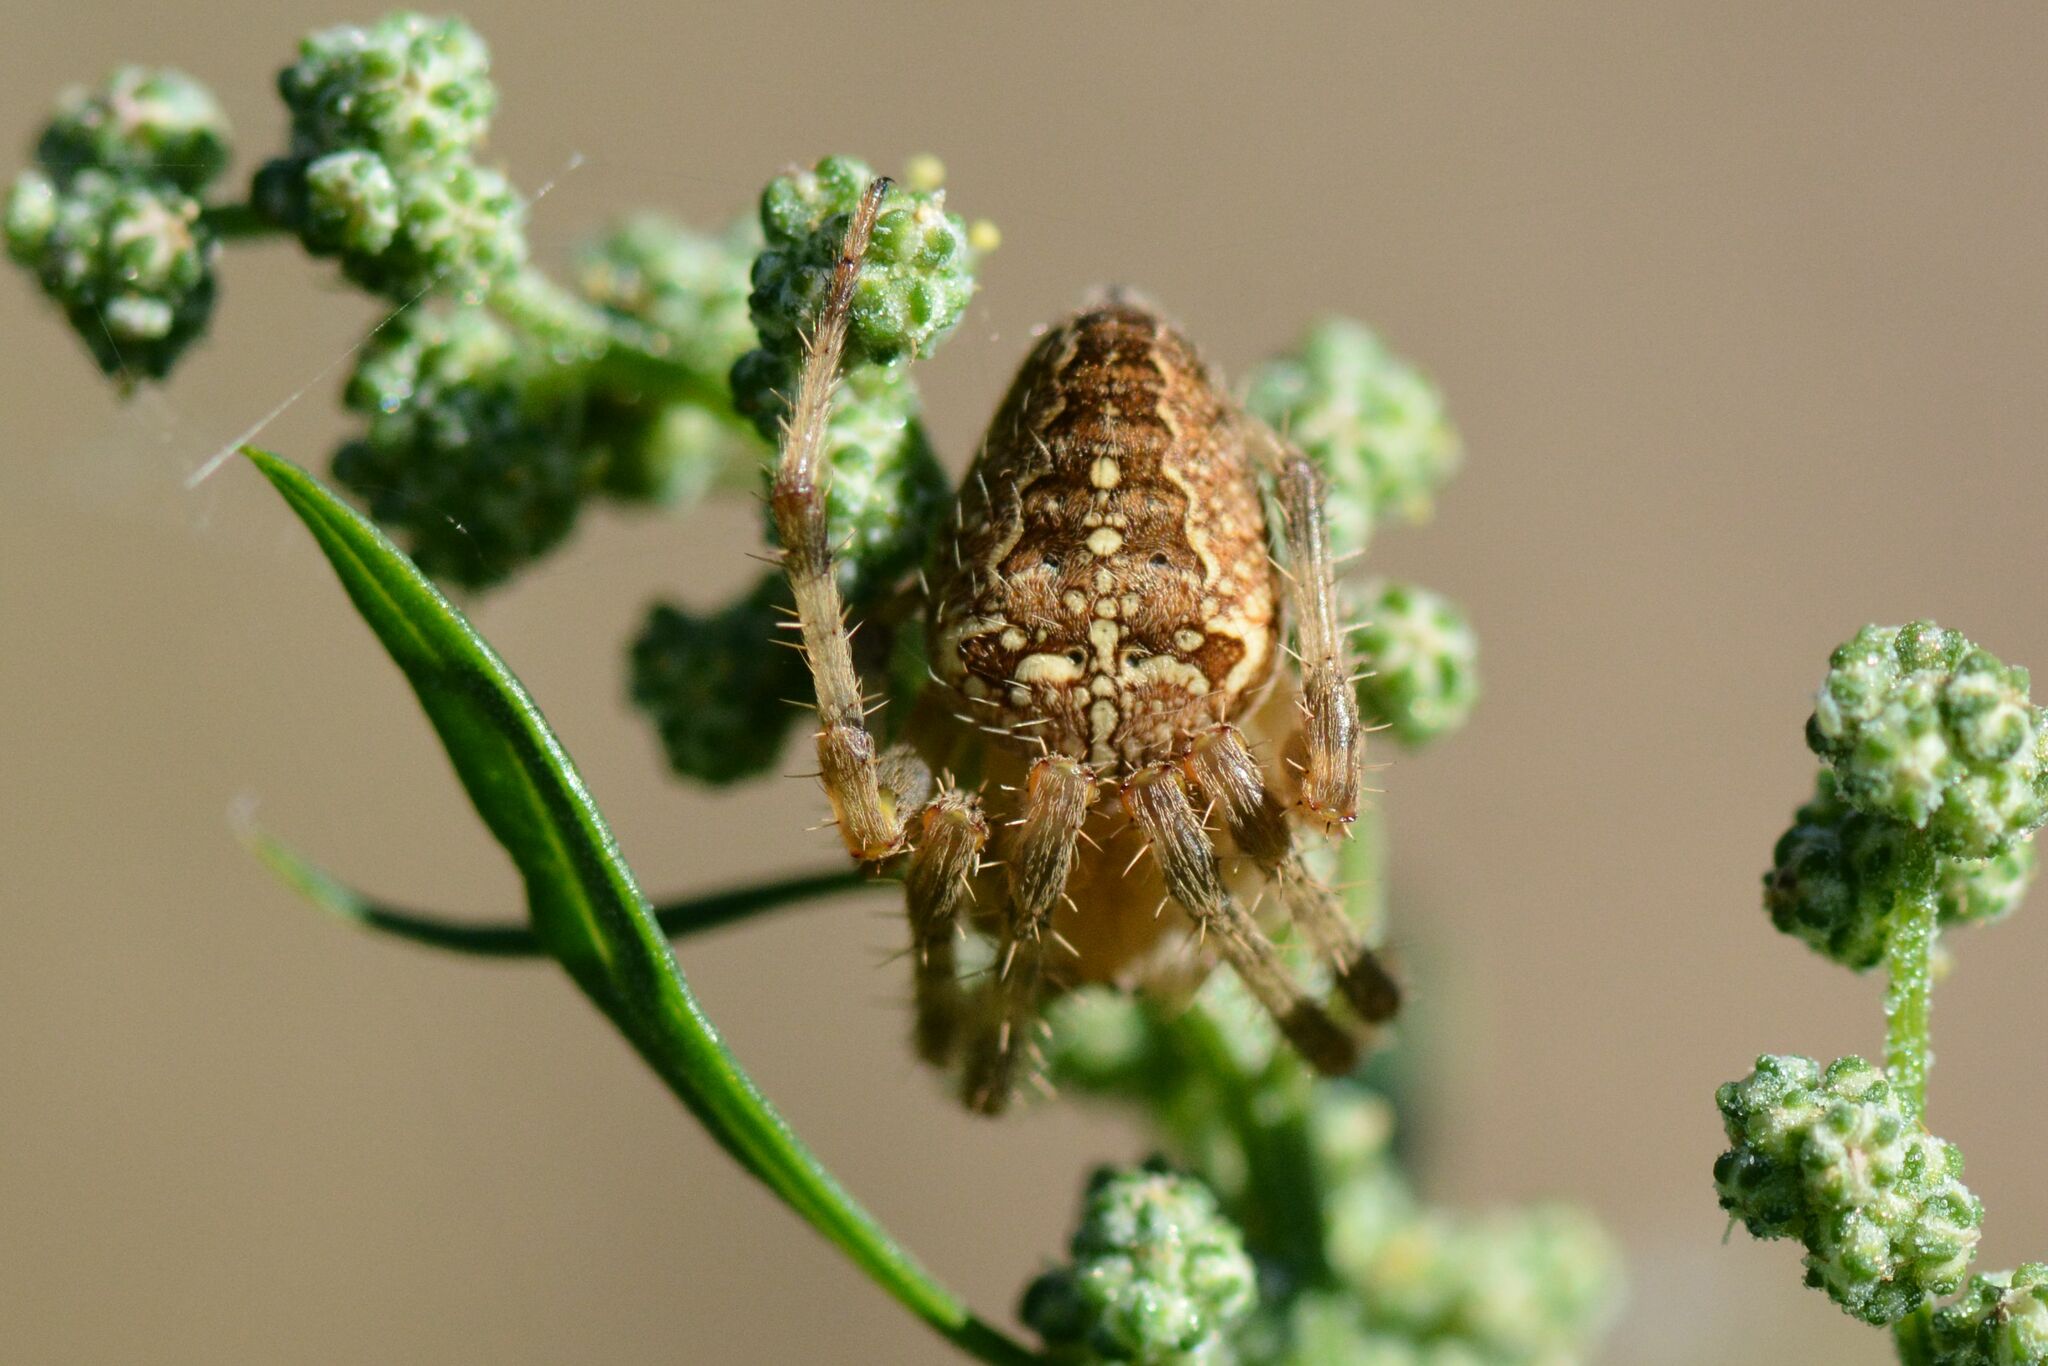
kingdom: Animalia
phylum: Arthropoda
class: Arachnida
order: Araneae
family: Araneidae
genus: Araneus
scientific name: Araneus diadematus
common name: Cross orbweaver
